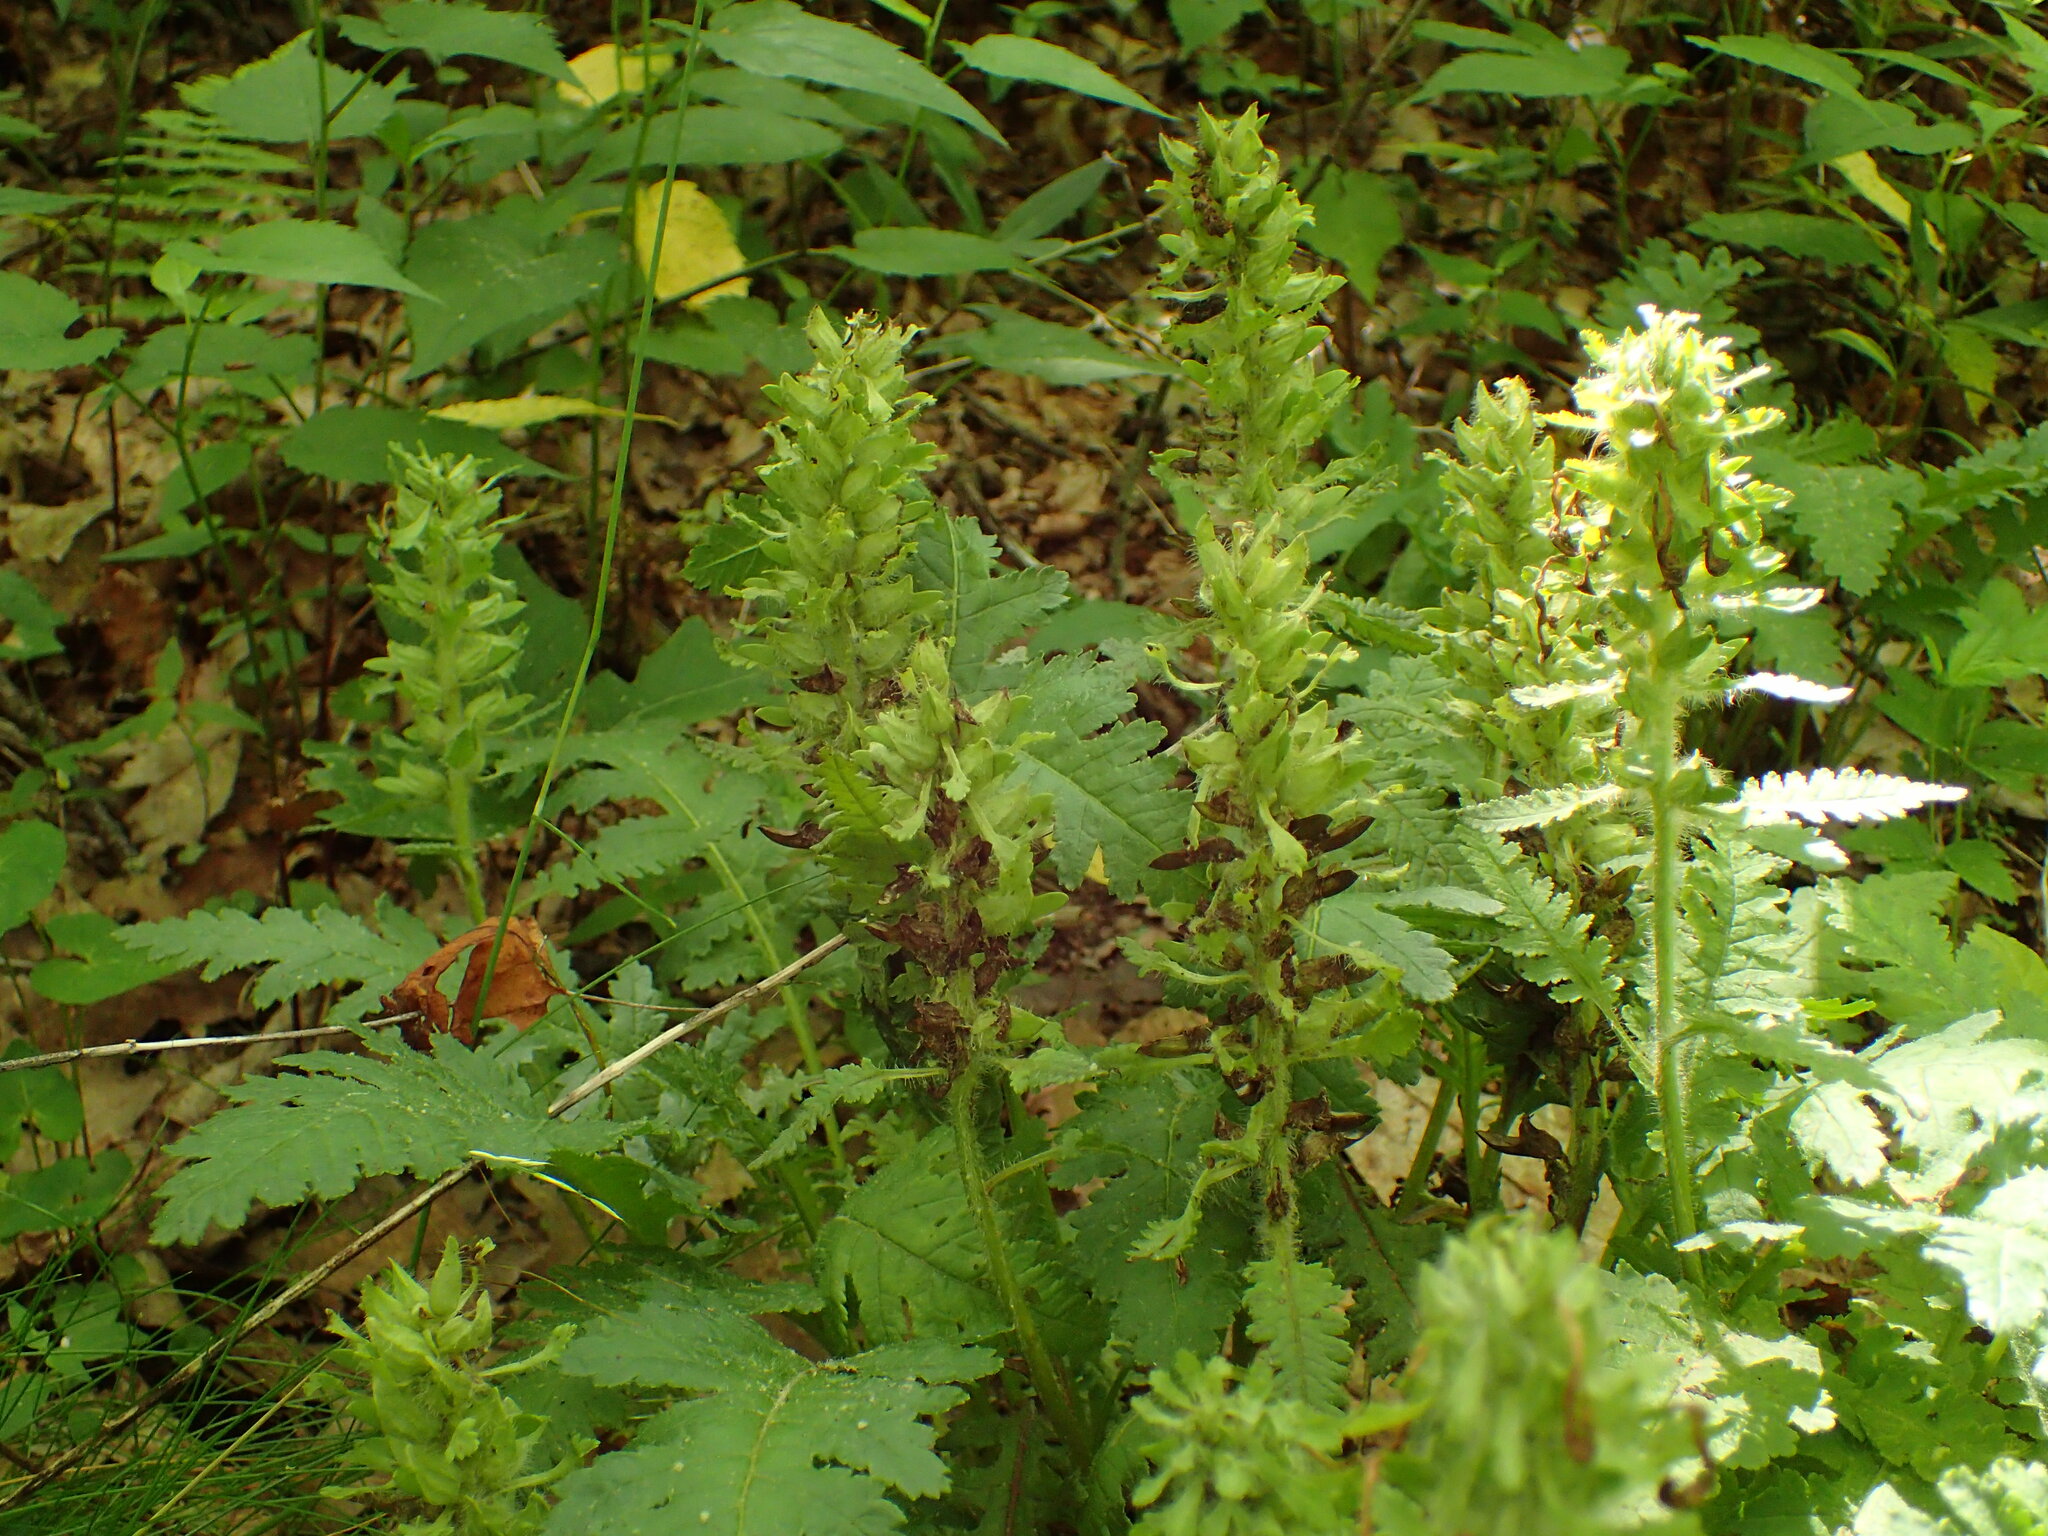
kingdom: Plantae
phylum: Tracheophyta
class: Magnoliopsida
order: Lamiales
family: Orobanchaceae
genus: Pedicularis
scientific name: Pedicularis canadensis
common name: Early lousewort
